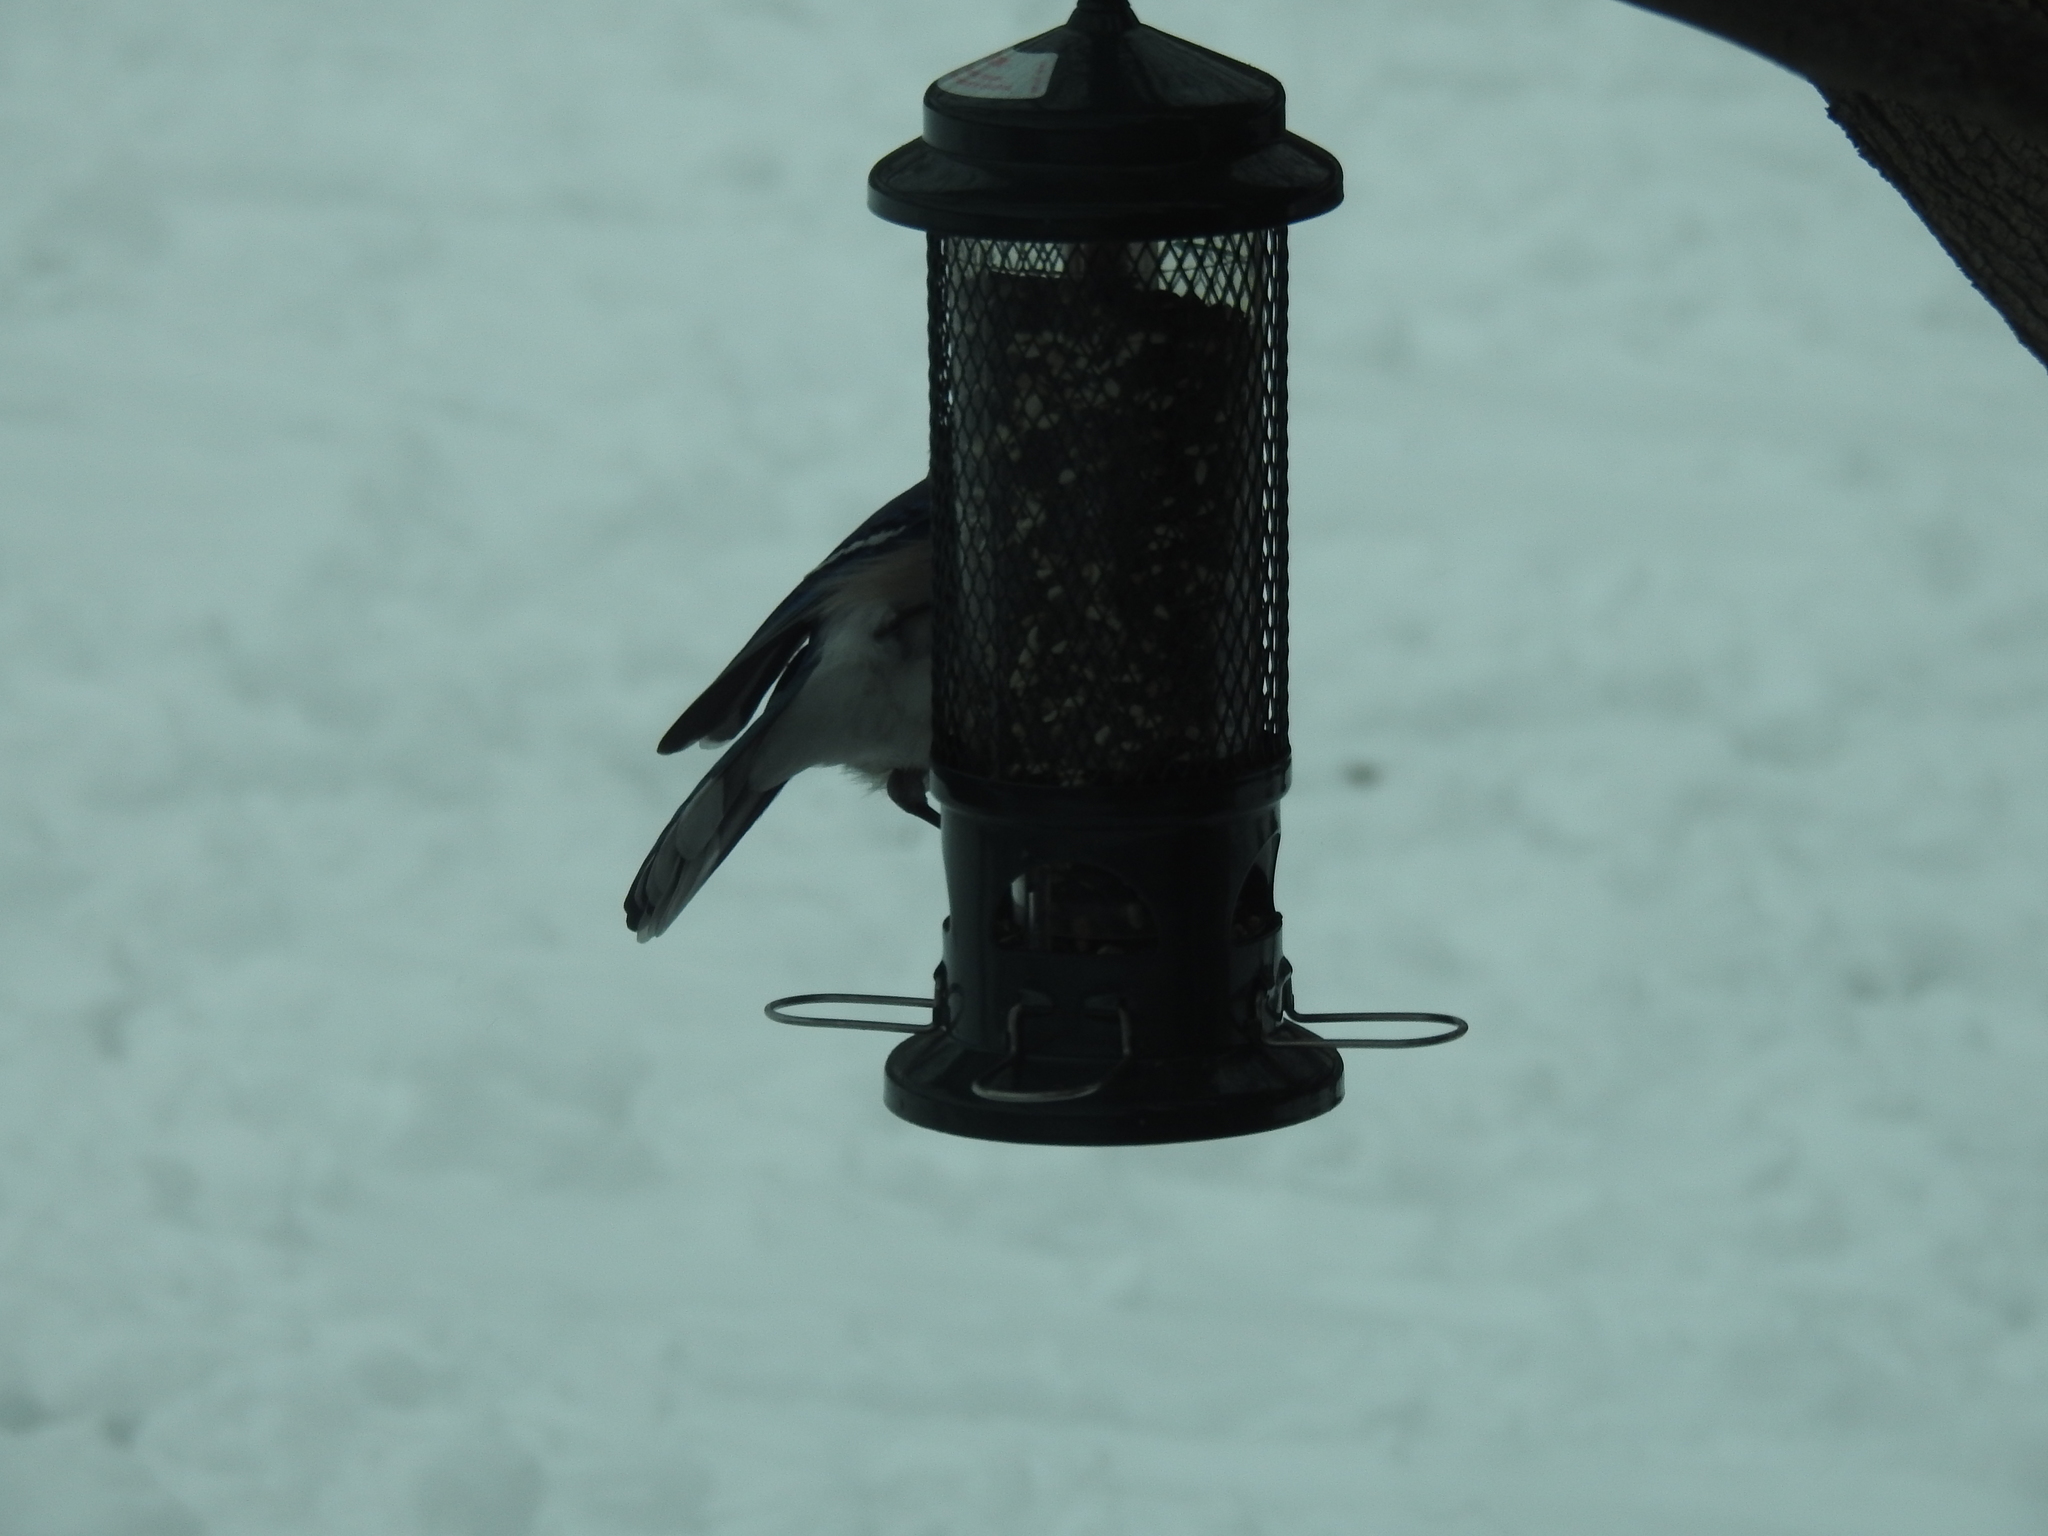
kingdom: Animalia
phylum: Chordata
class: Aves
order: Passeriformes
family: Corvidae
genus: Cyanocitta
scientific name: Cyanocitta cristata
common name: Blue jay
